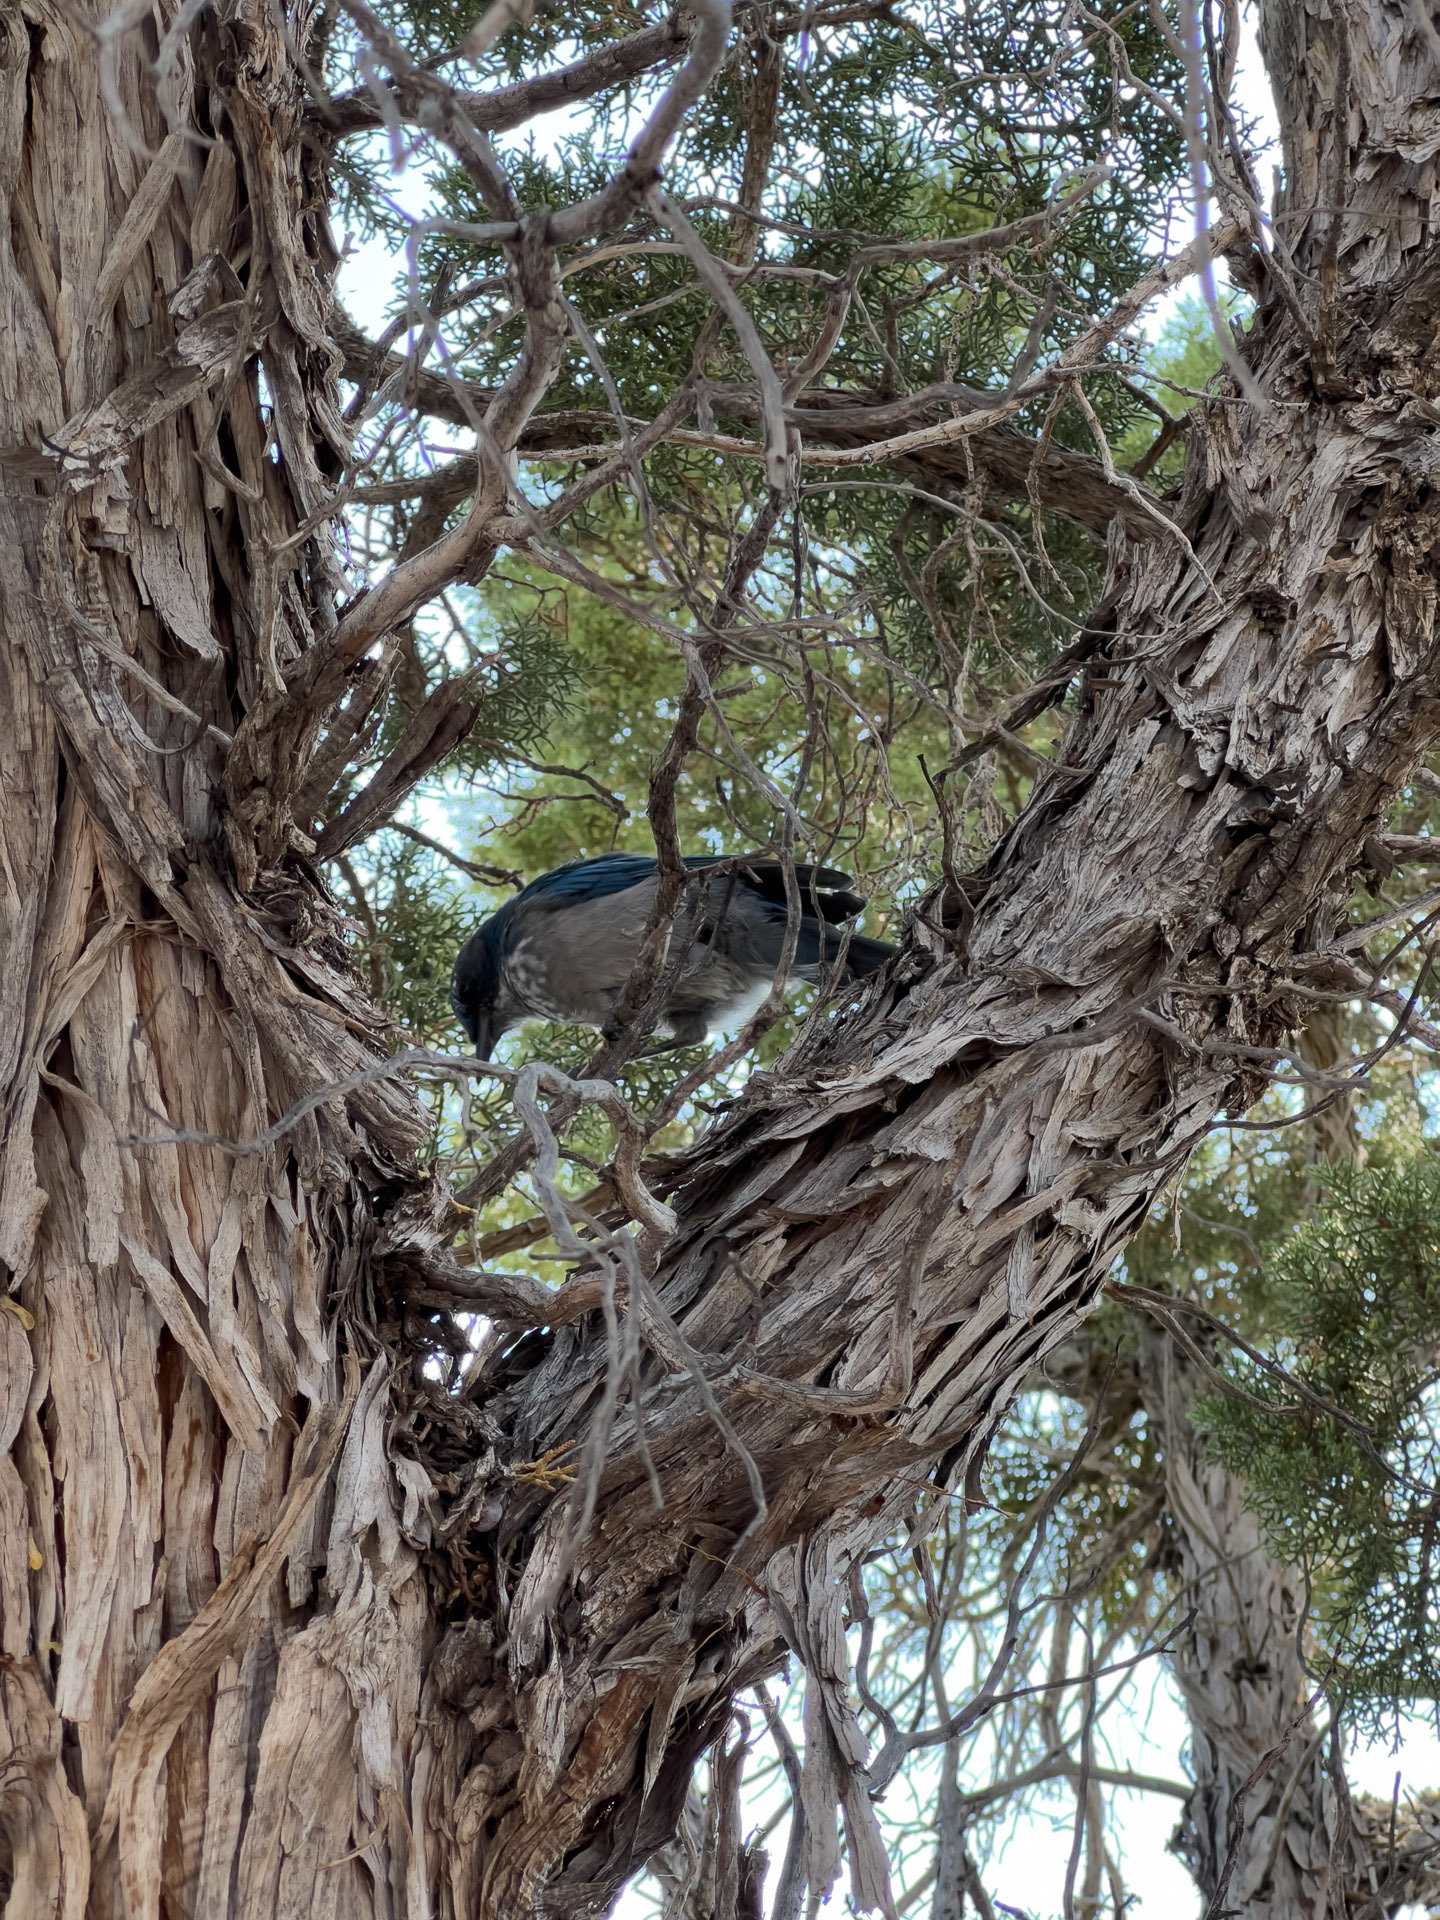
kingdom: Animalia
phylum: Chordata
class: Aves
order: Passeriformes
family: Corvidae
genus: Aphelocoma
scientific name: Aphelocoma woodhouseii
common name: Woodhouse's scrub-jay
